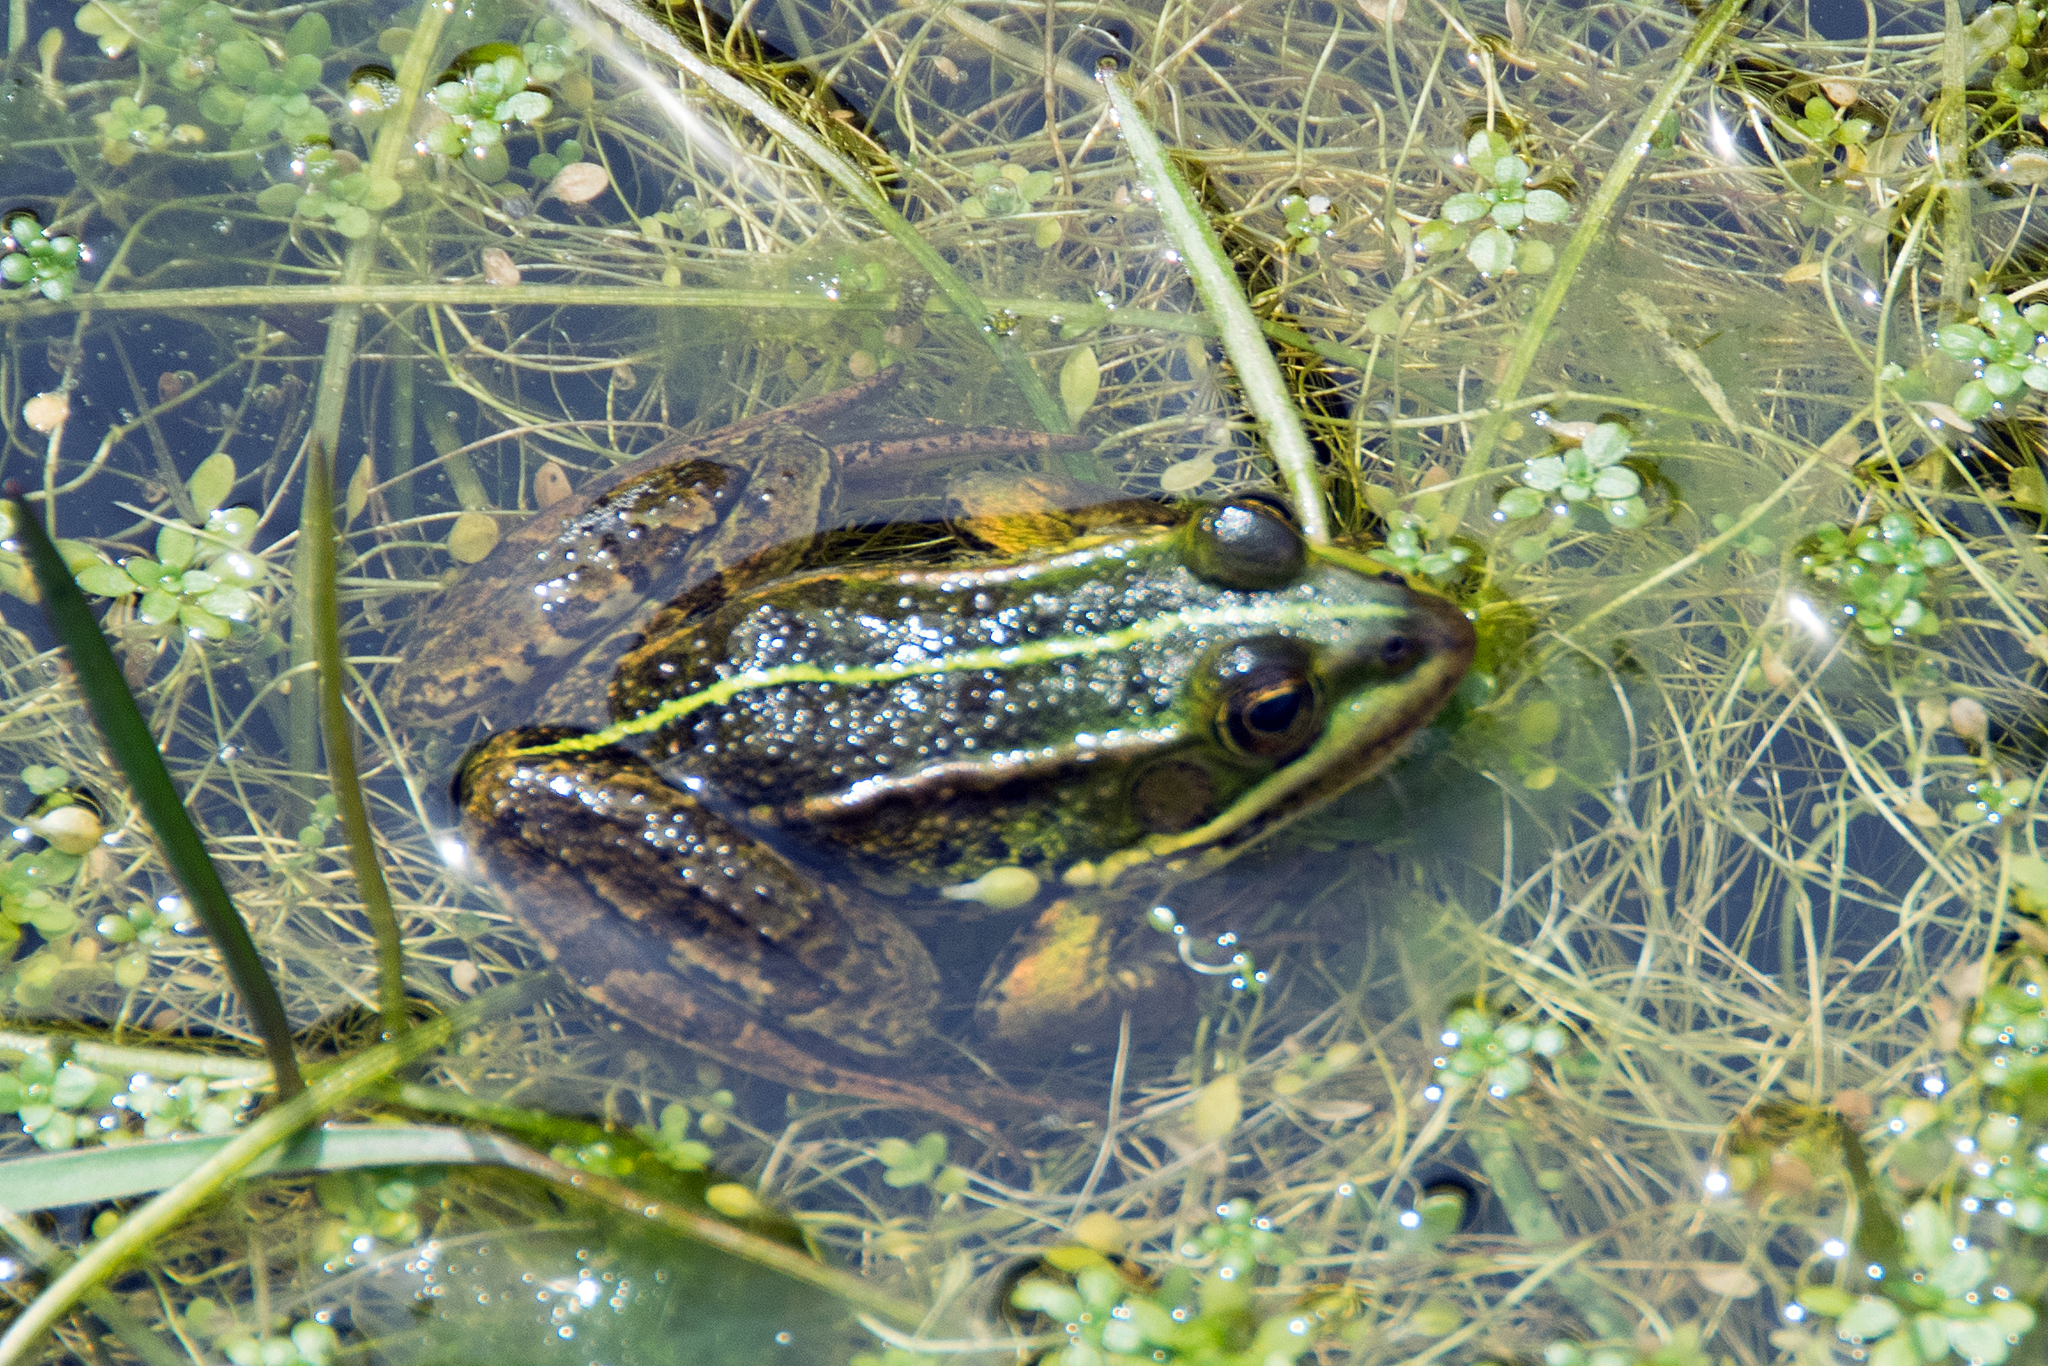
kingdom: Animalia
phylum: Chordata
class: Amphibia
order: Anura
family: Ranidae
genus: Pelophylax
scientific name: Pelophylax bergeri
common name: Italian pool frog
